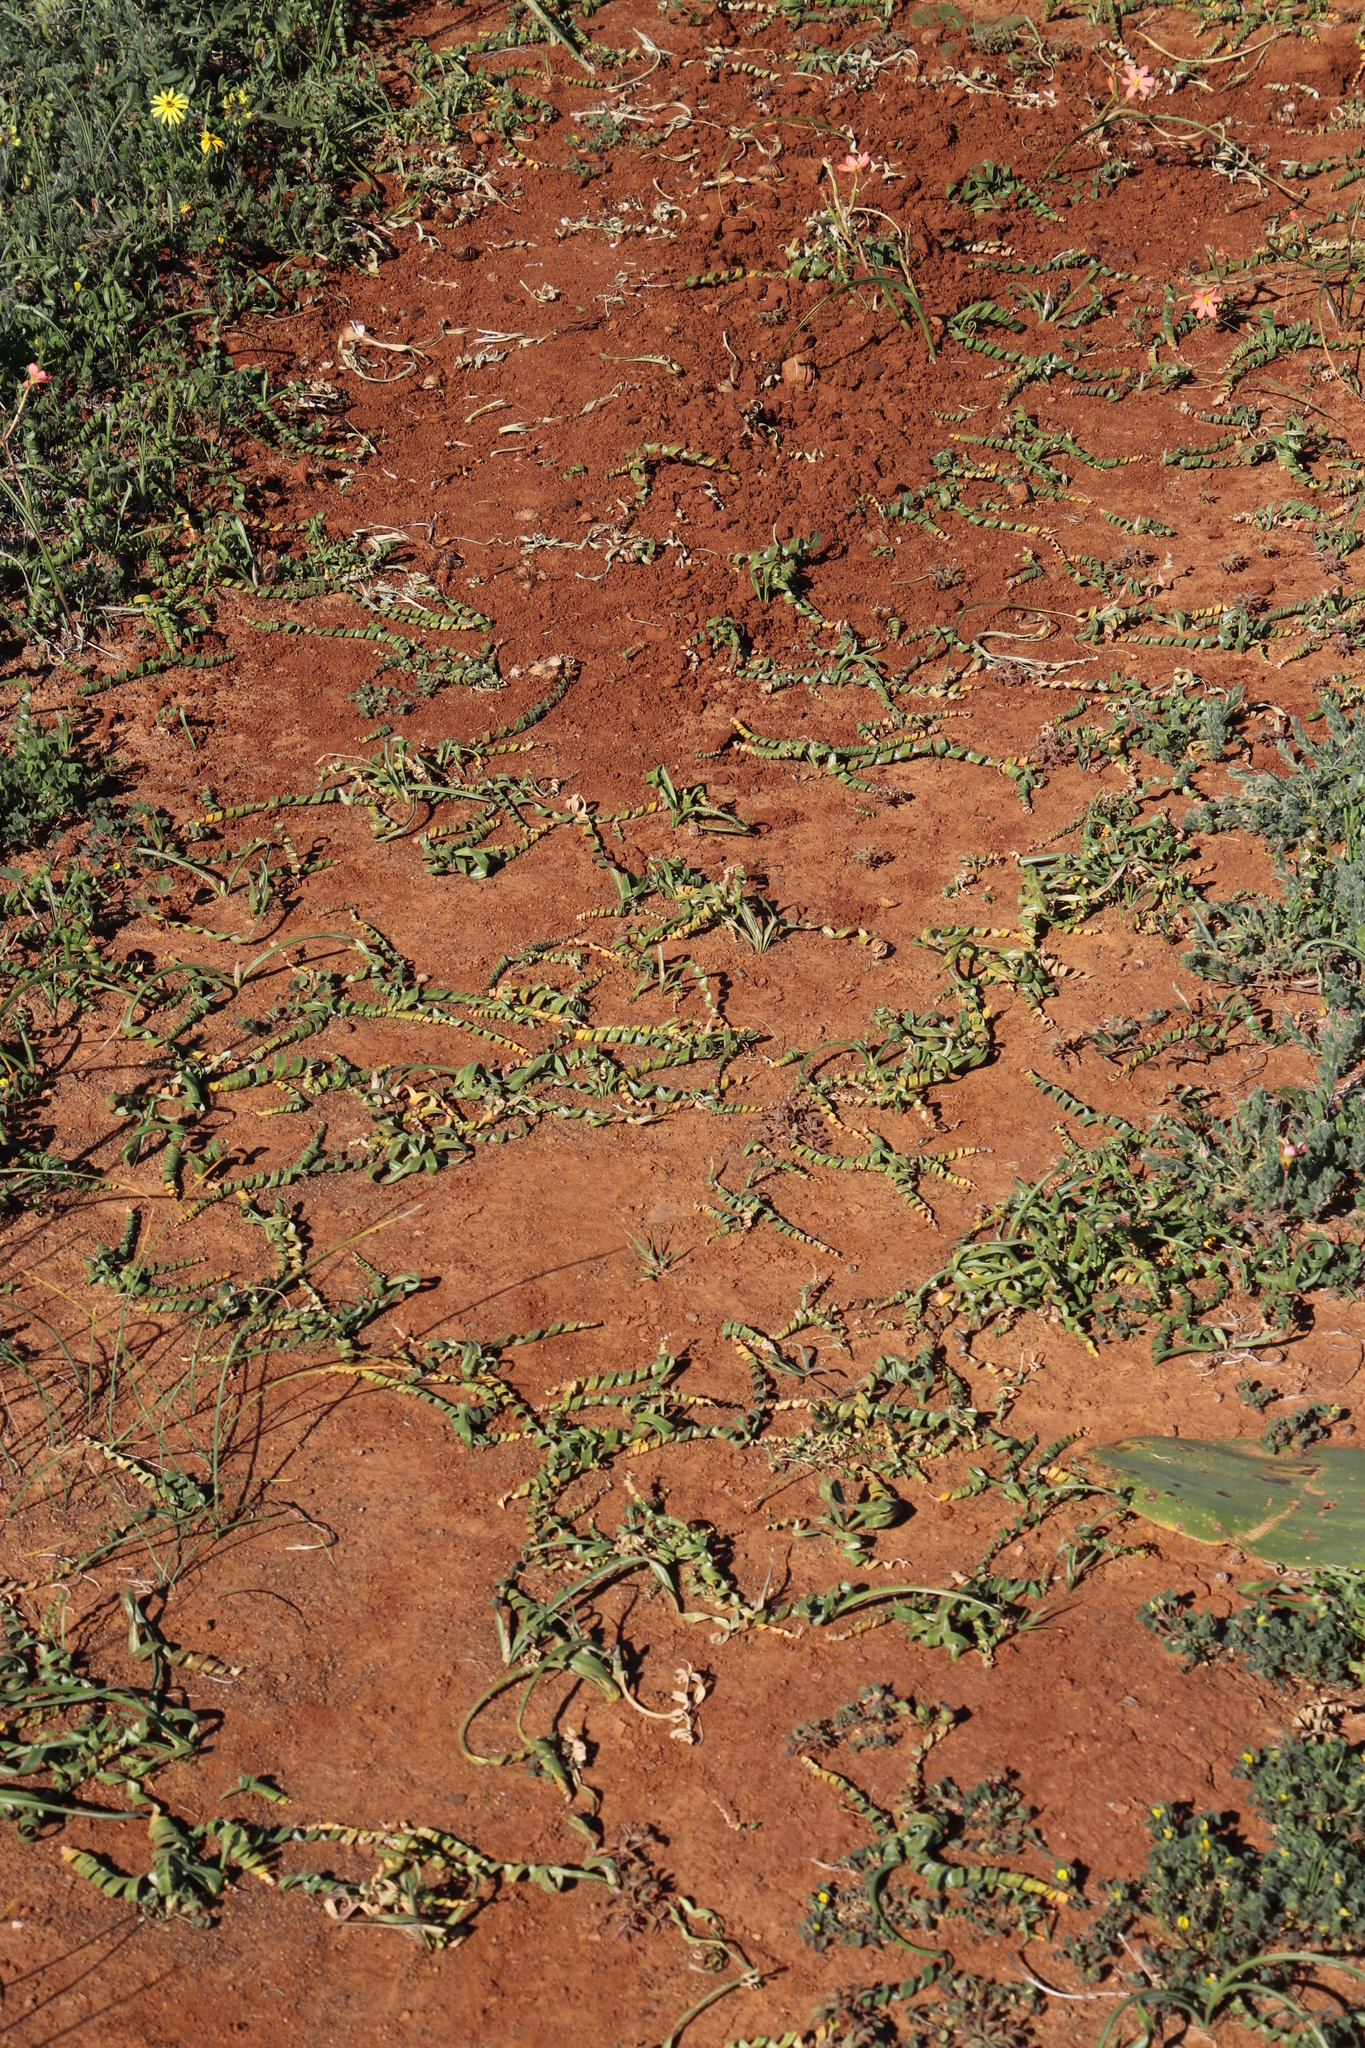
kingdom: Plantae
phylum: Tracheophyta
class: Liliopsida
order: Asparagales
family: Iridaceae
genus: Moraea
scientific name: Moraea pritzeliana
